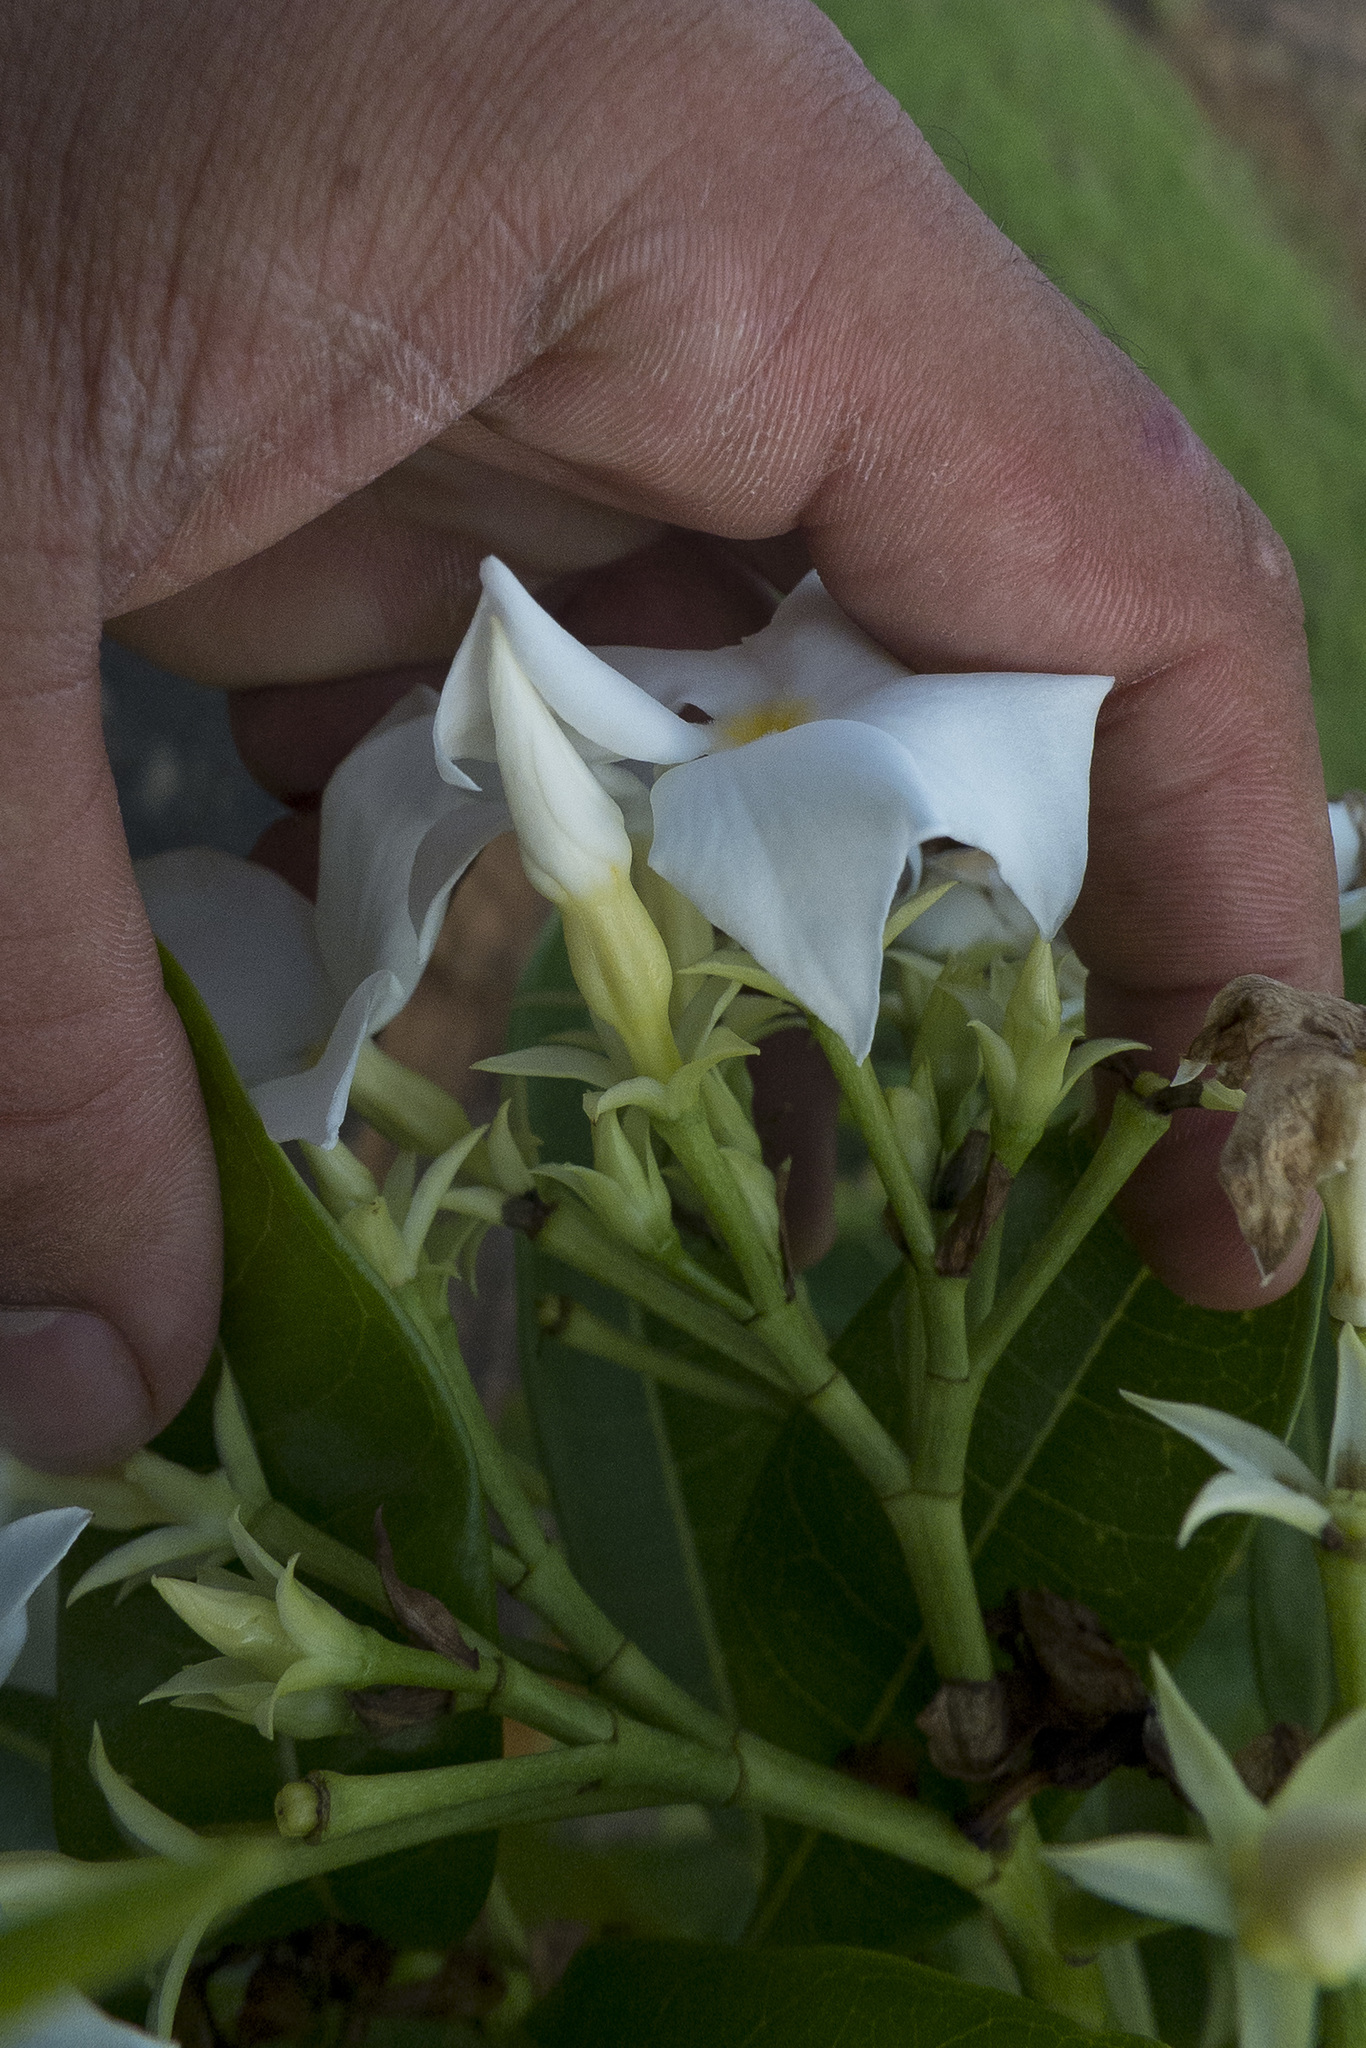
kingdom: Plantae
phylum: Tracheophyta
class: Magnoliopsida
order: Gentianales
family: Apocynaceae
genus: Cerbera
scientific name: Cerbera manghas
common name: Reva
